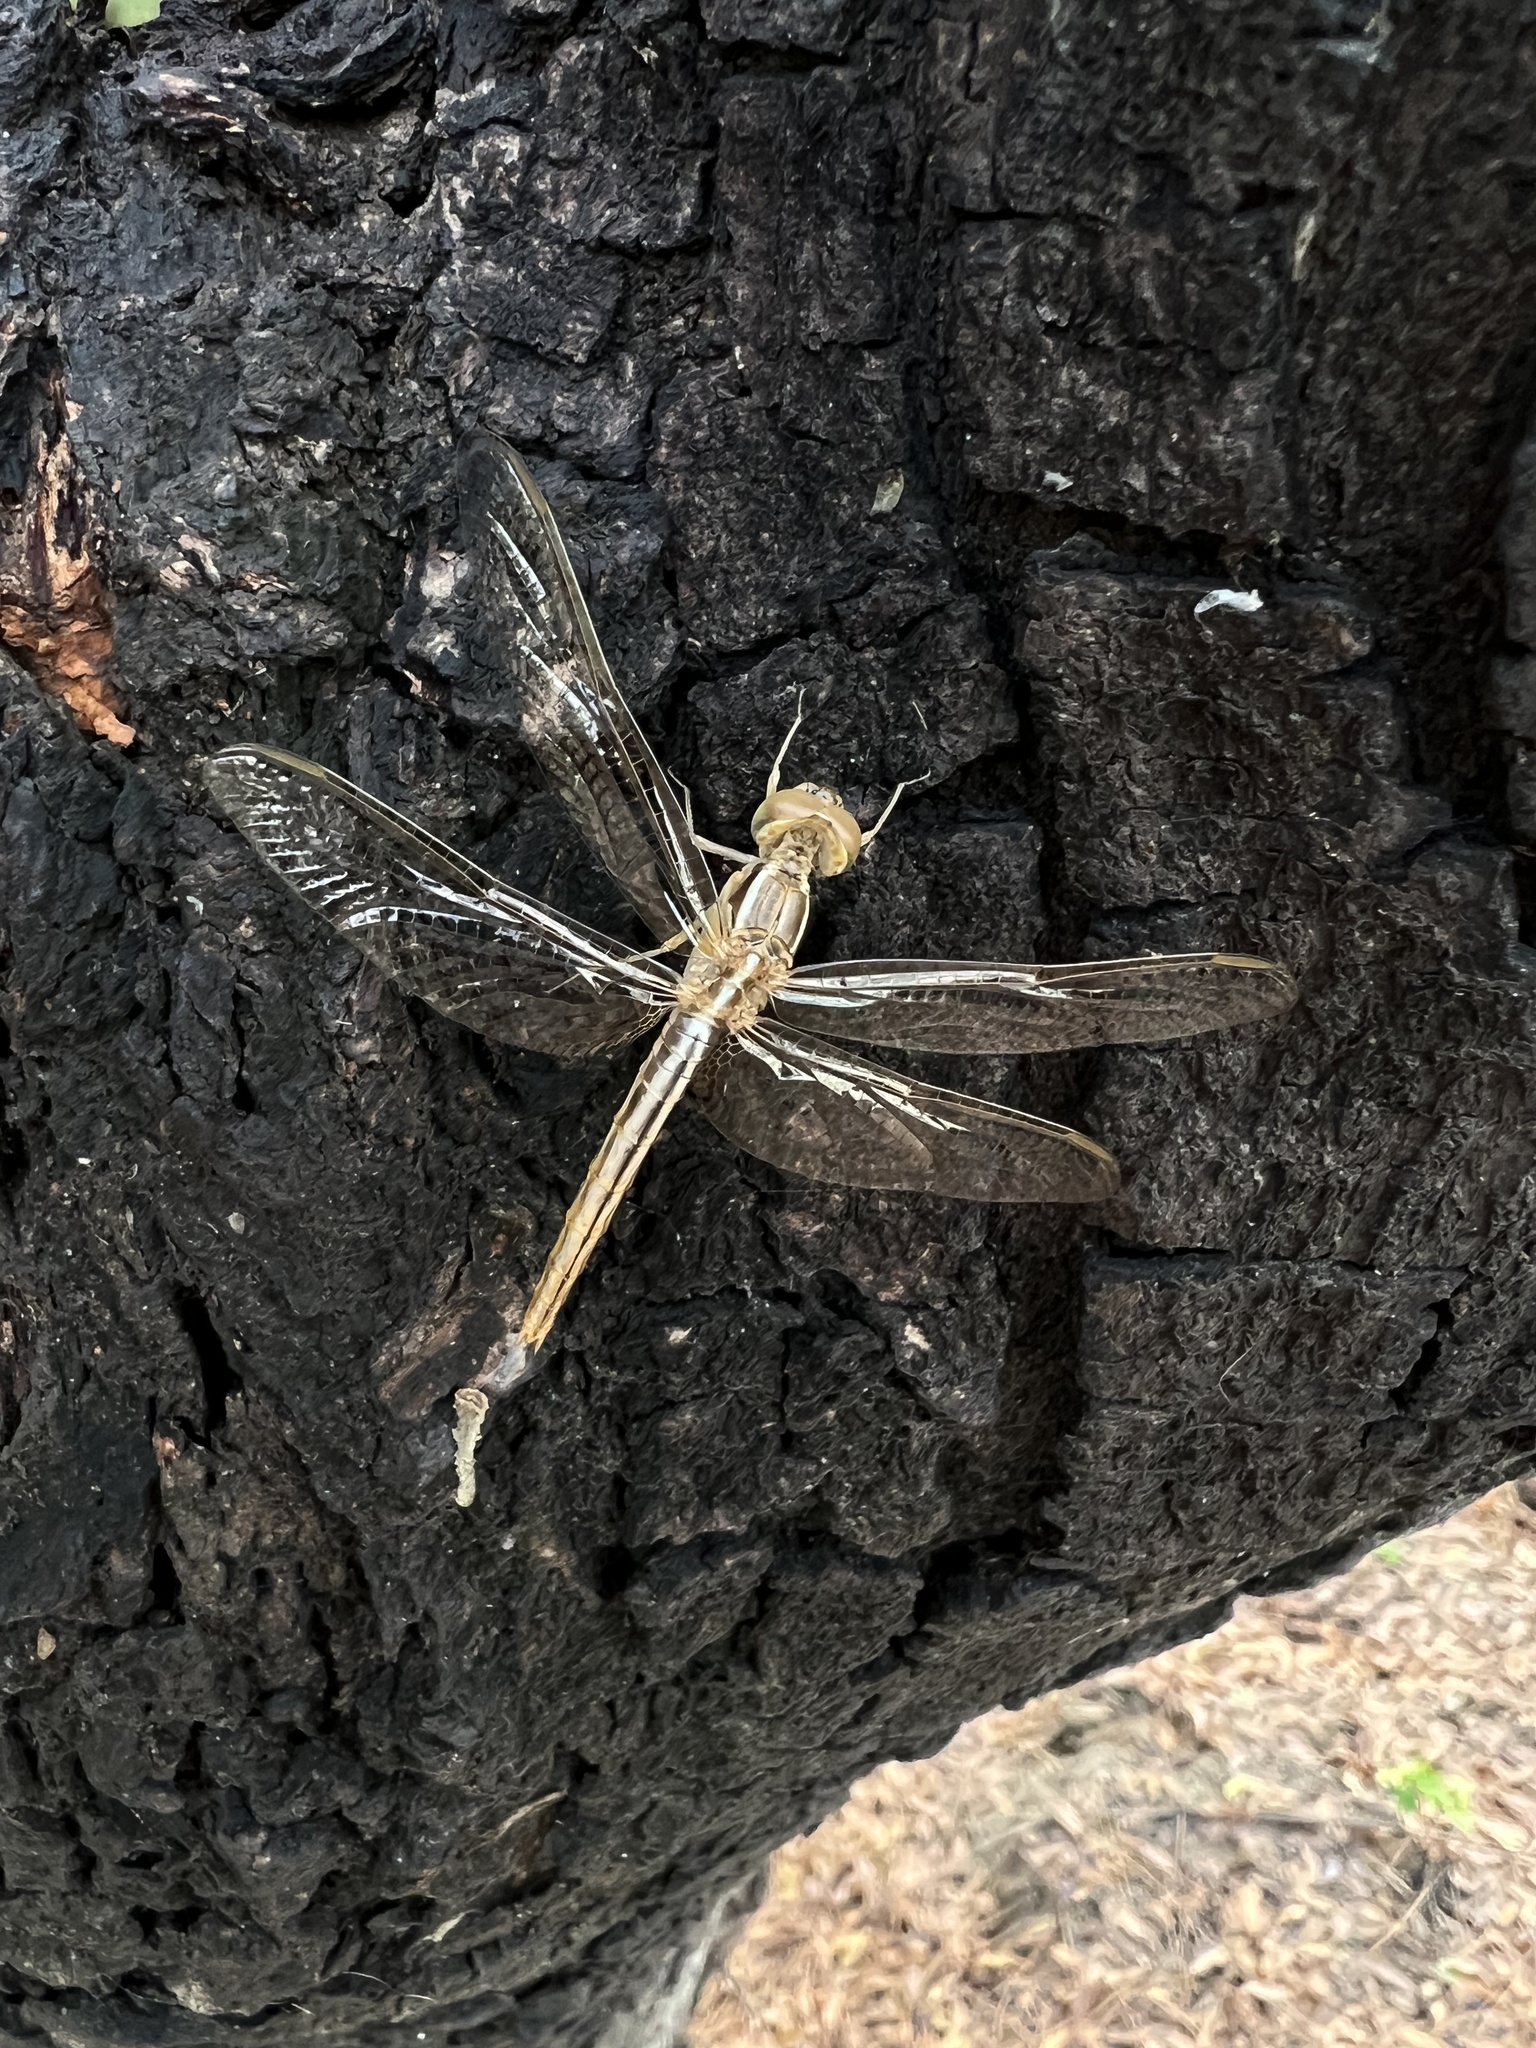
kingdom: Animalia
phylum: Arthropoda
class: Insecta
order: Odonata
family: Libellulidae
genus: Orthetrum
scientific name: Orthetrum taeniolatum
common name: Small skimmer
